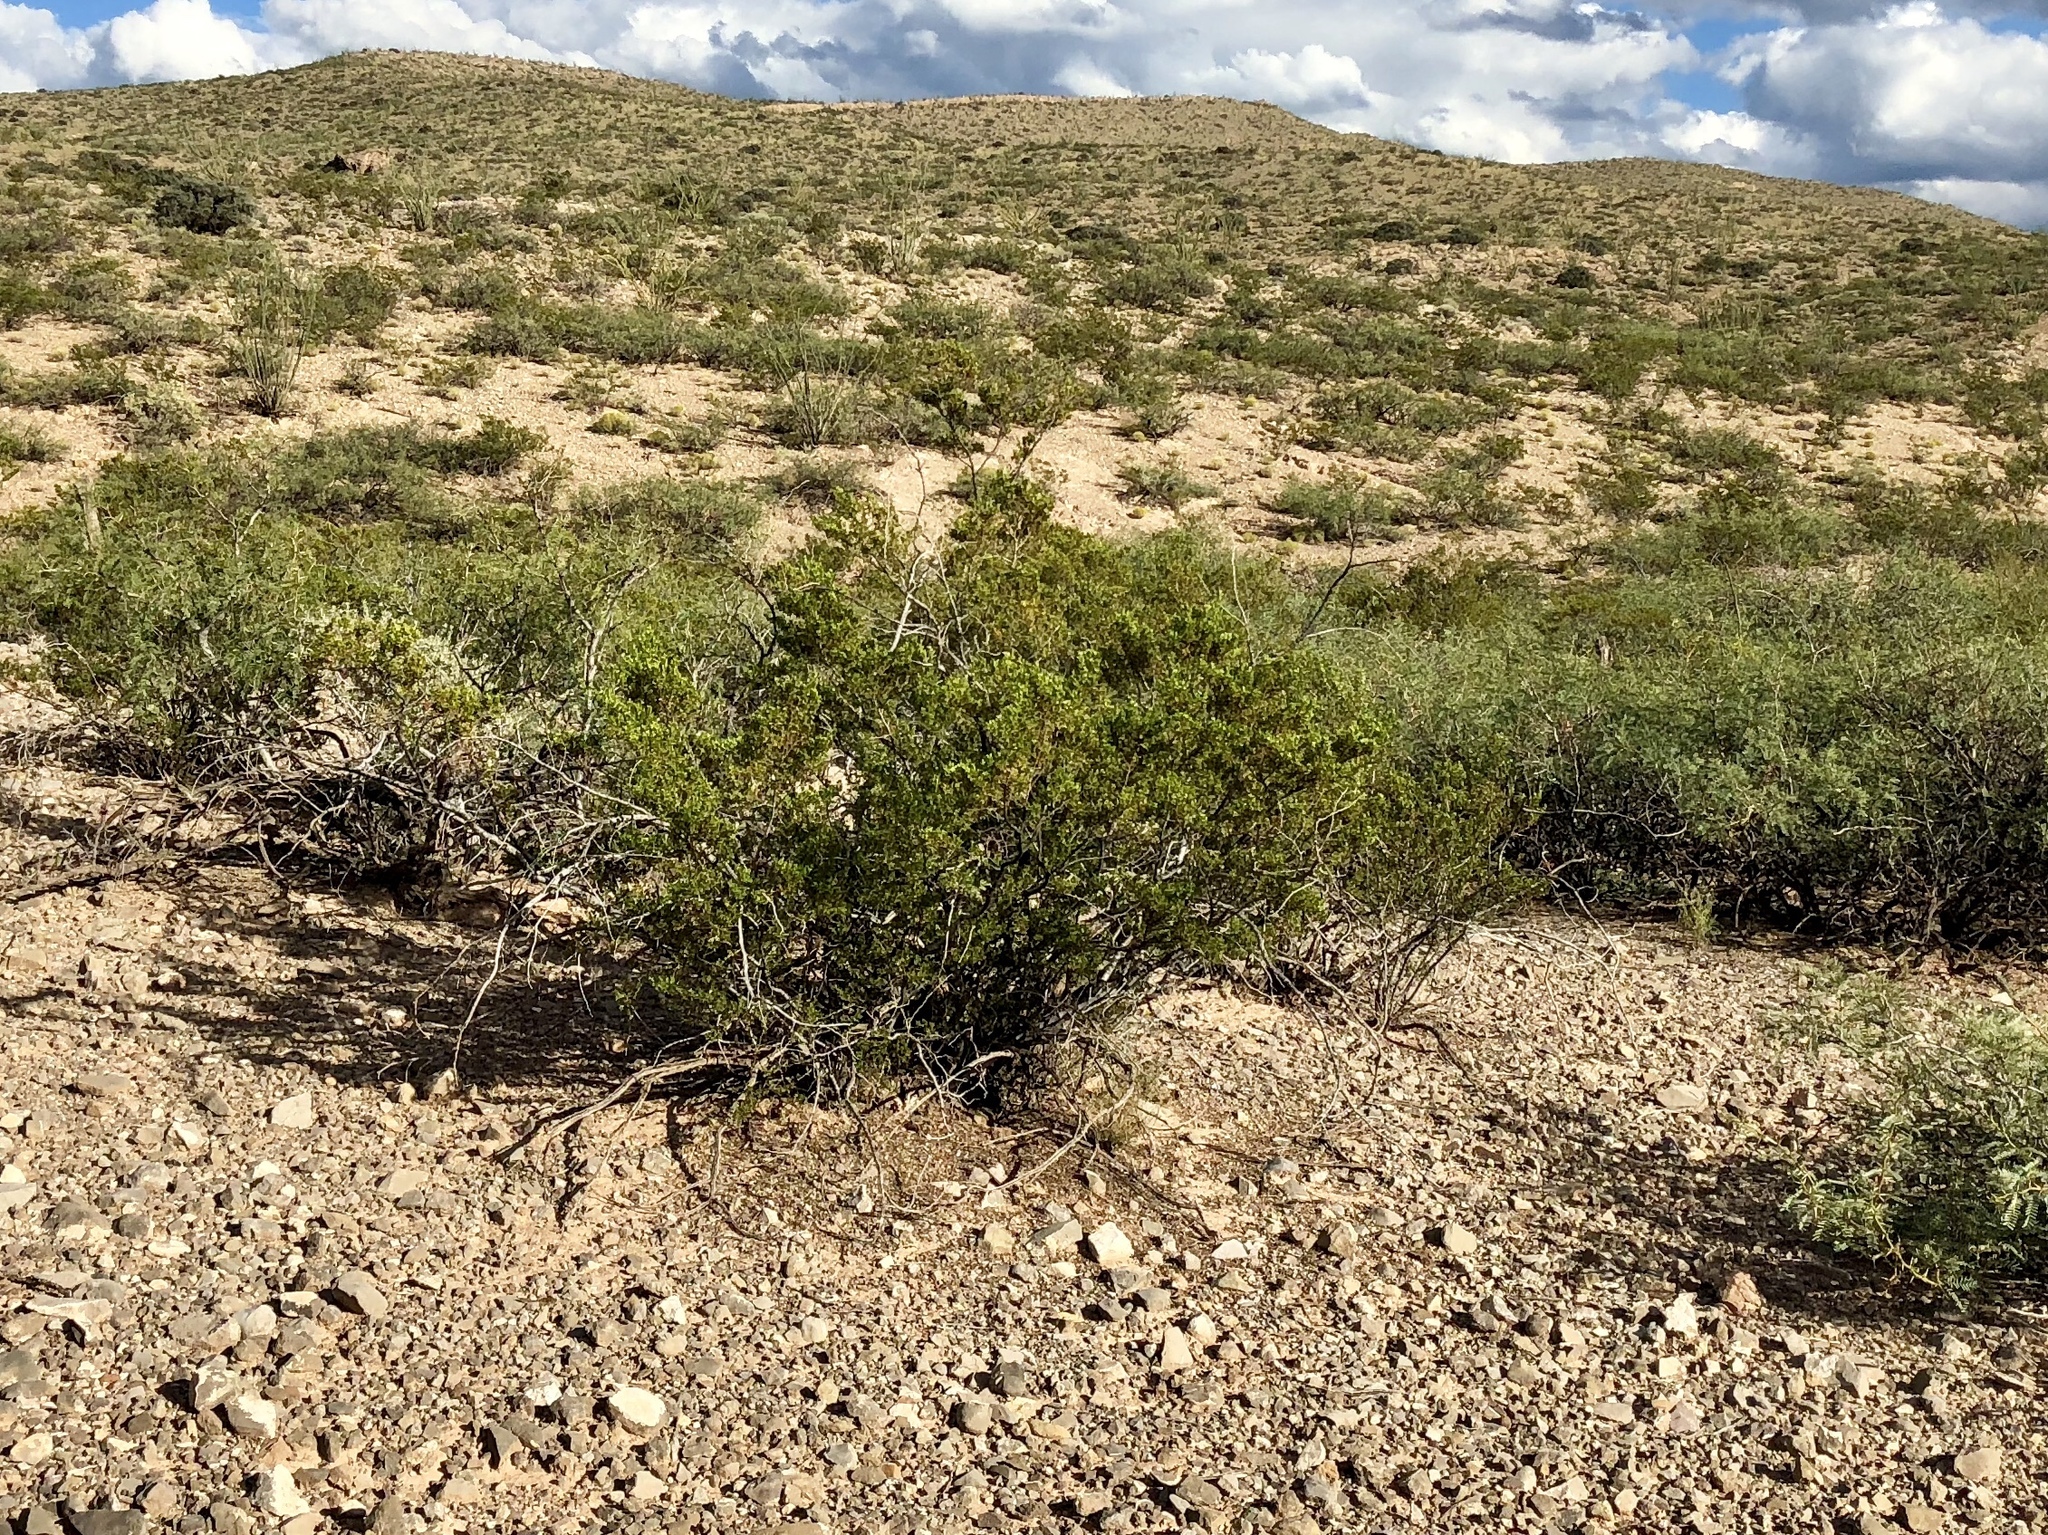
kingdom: Plantae
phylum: Tracheophyta
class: Magnoliopsida
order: Zygophyllales
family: Zygophyllaceae
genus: Larrea
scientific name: Larrea tridentata
